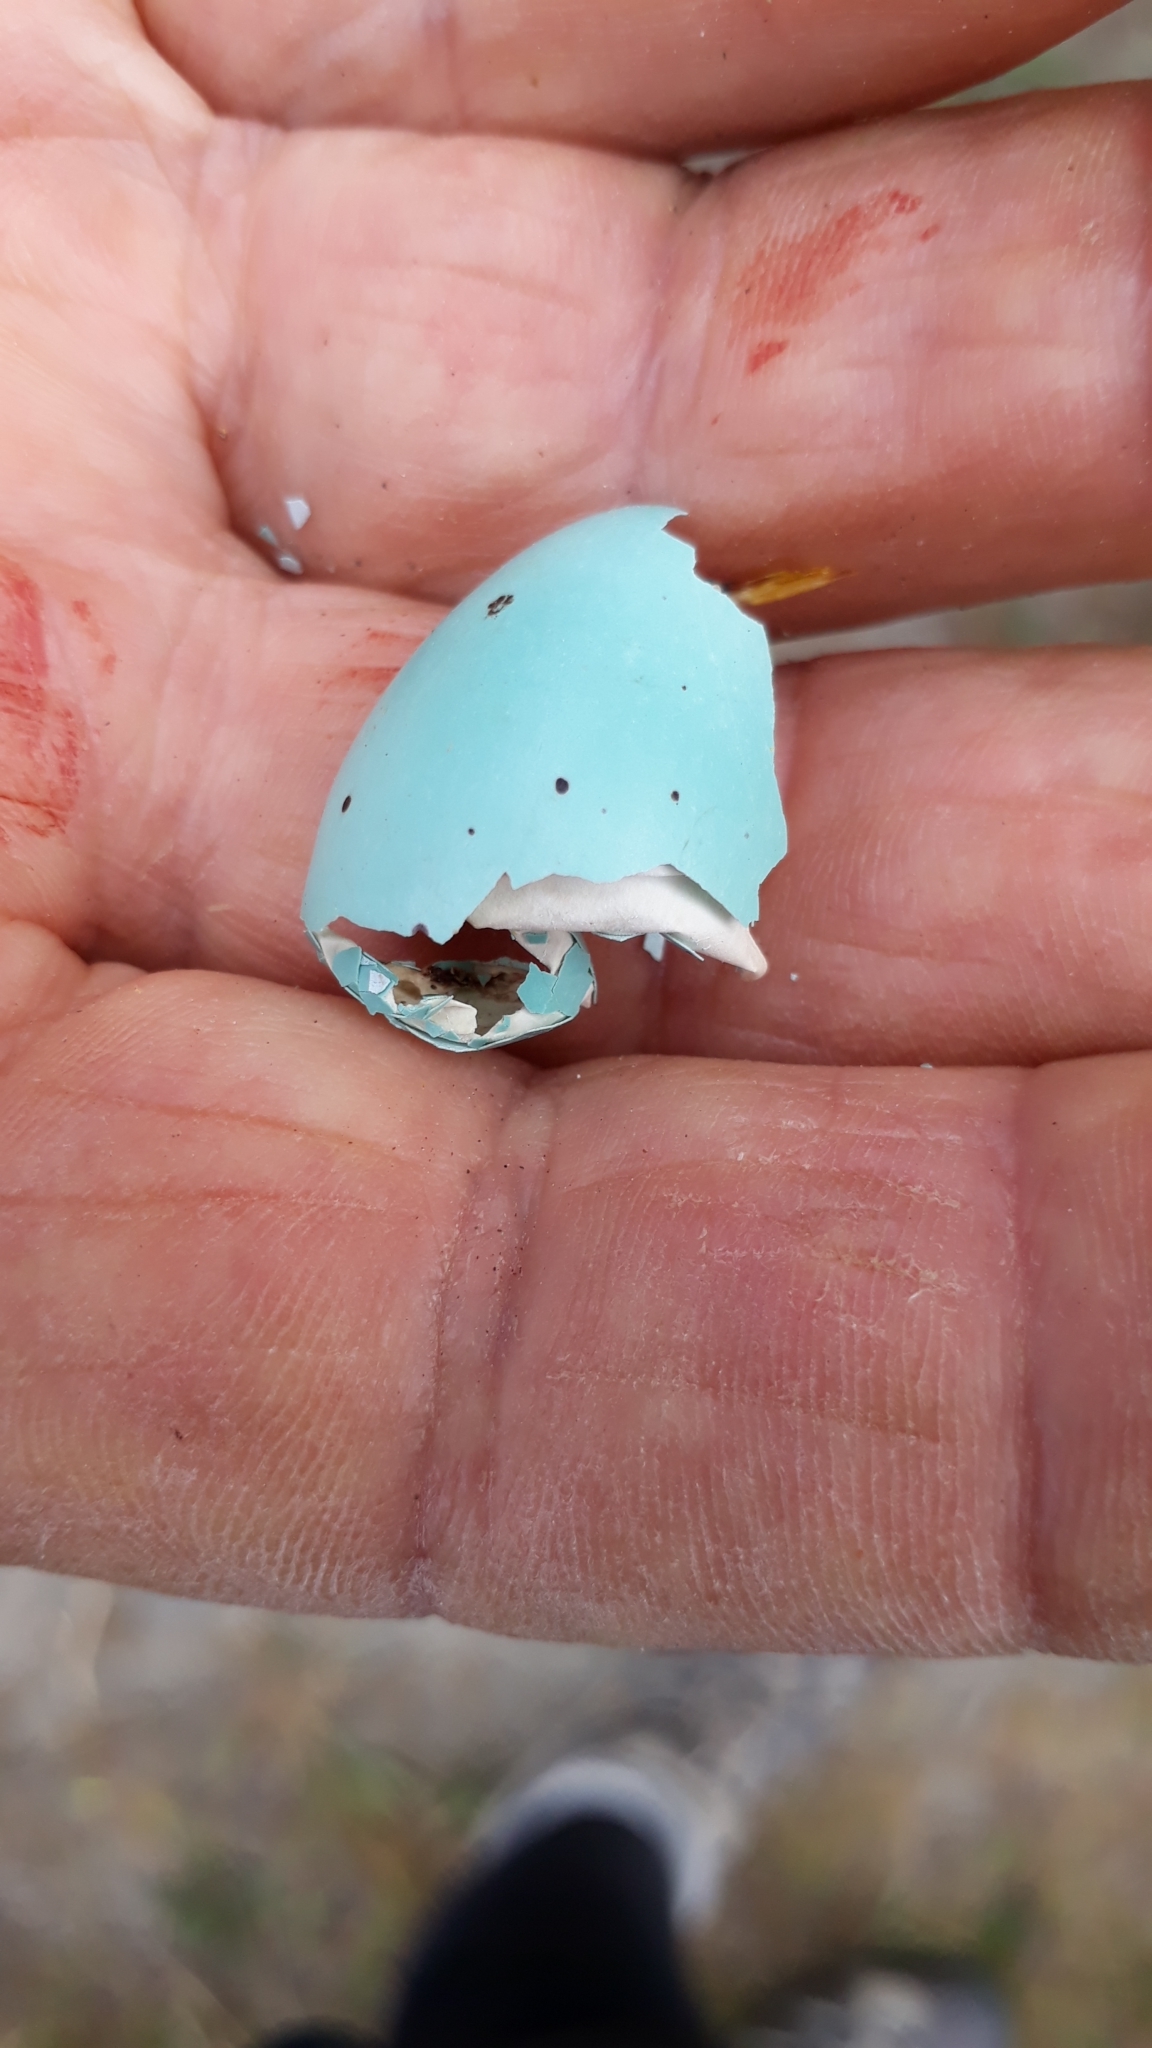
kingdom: Animalia
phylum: Chordata
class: Aves
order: Passeriformes
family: Turdidae
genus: Turdus
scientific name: Turdus philomelos
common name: Song thrush
